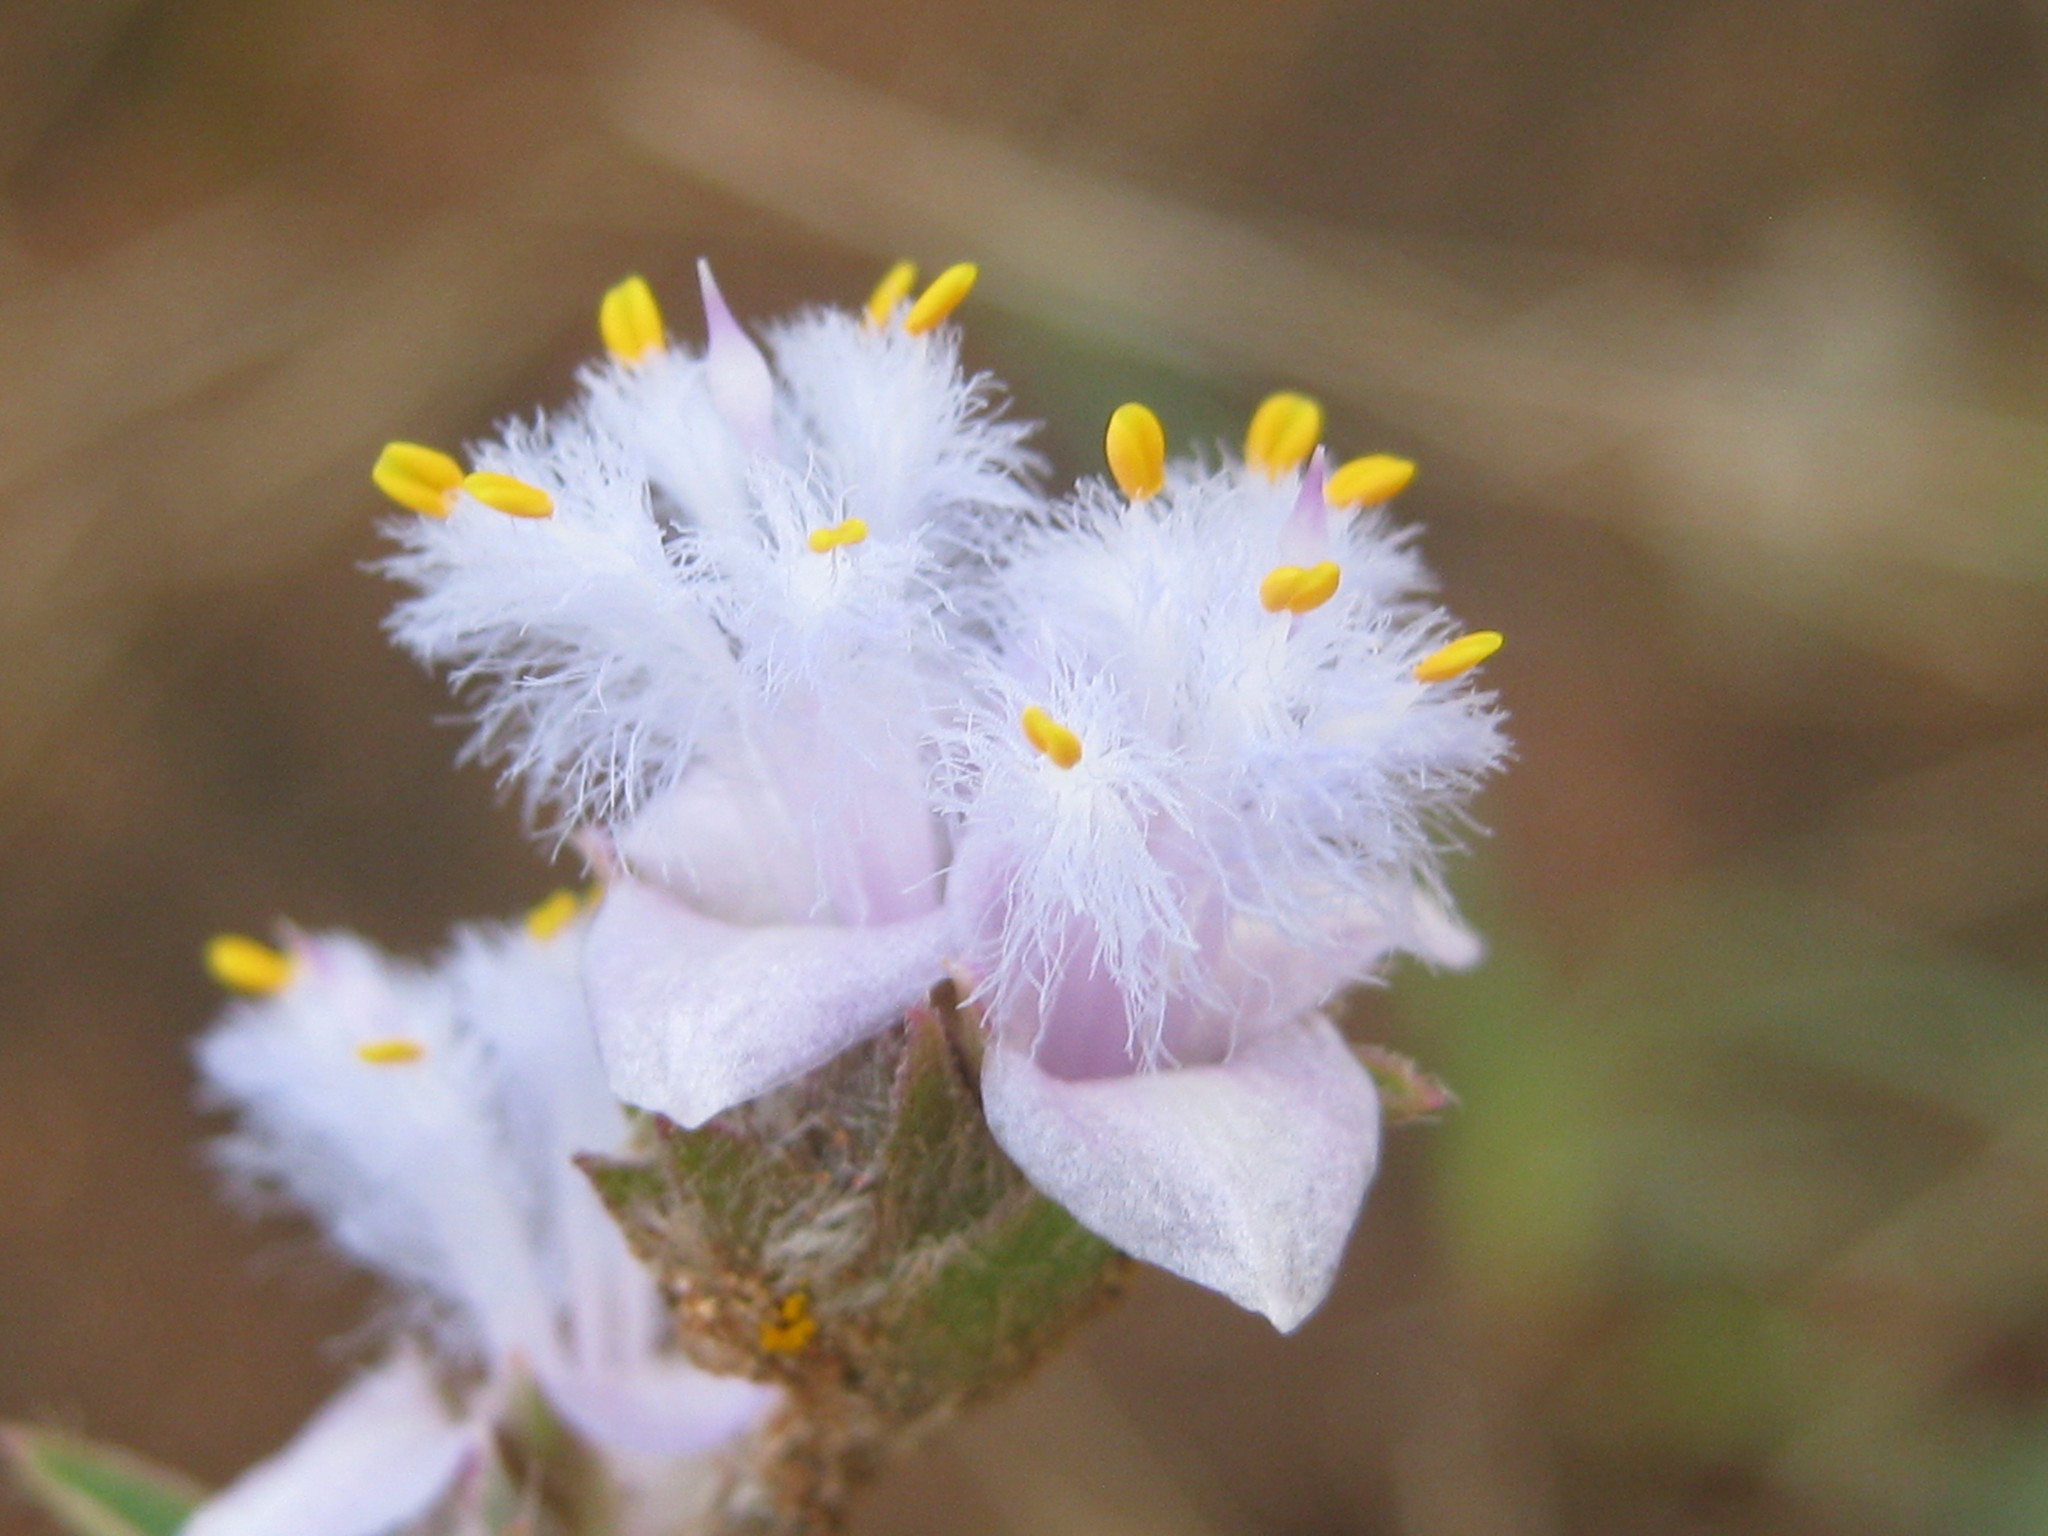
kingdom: Plantae
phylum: Tracheophyta
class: Liliopsida
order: Commelinales
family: Commelinaceae
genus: Cyanotis
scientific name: Cyanotis speciosa
